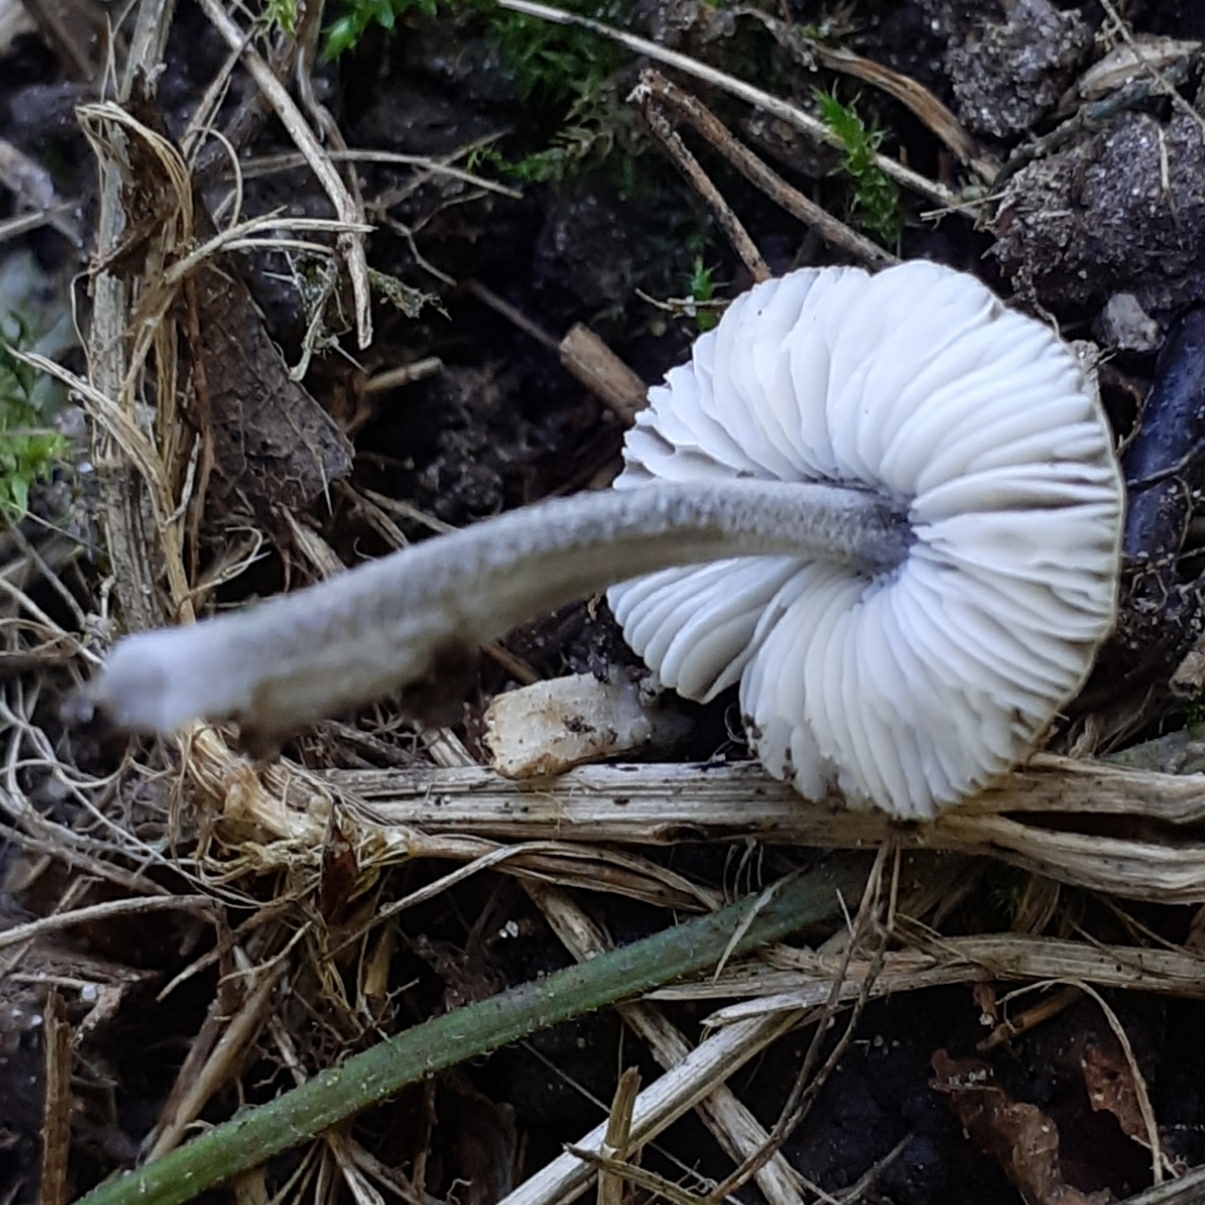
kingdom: Fungi
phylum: Basidiomycota
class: Agaricomycetes
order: Agaricales
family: Pluteaceae
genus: Pluteus
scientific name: Pluteus thomsonii
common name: Veined shield
